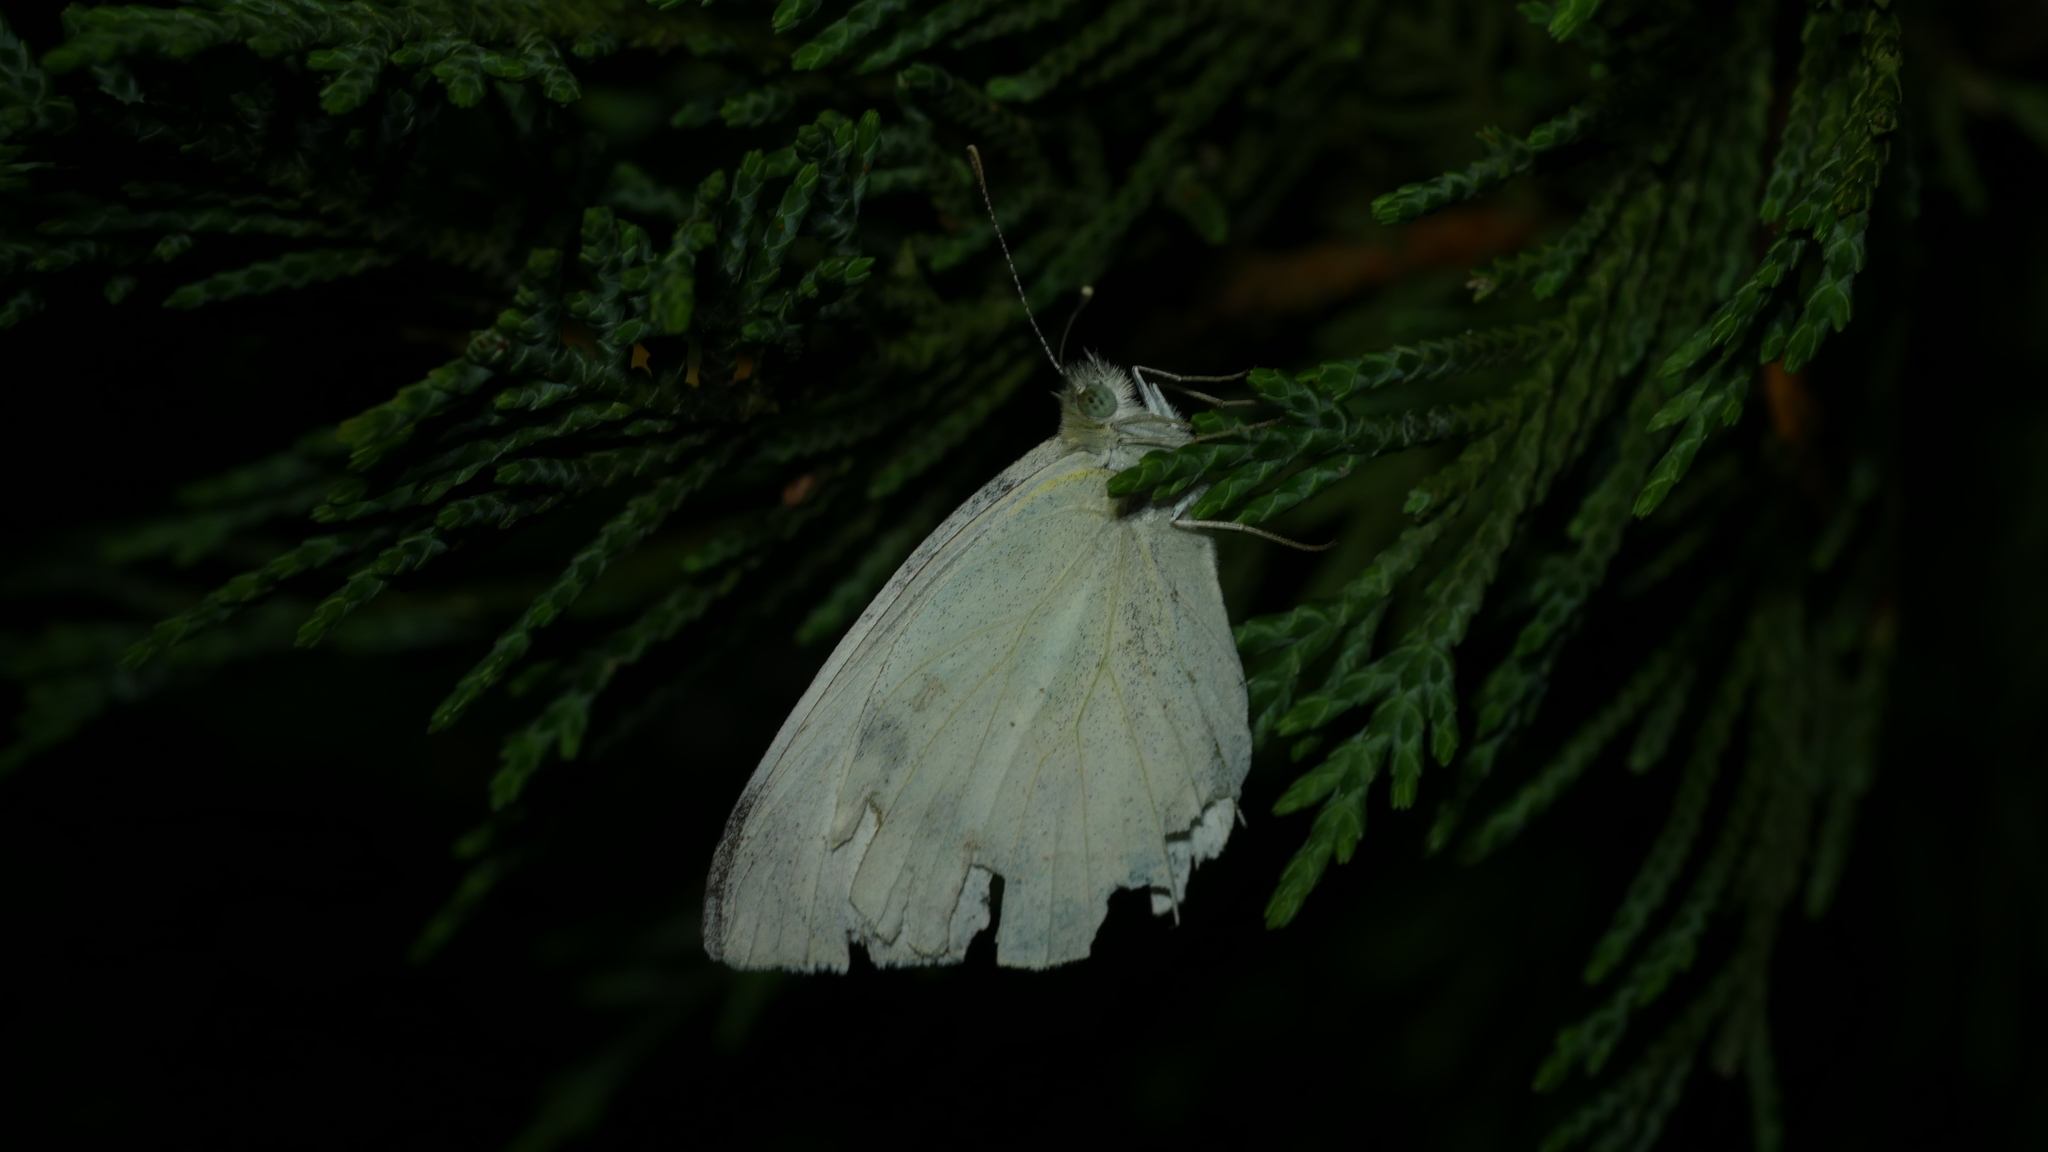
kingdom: Animalia
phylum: Arthropoda
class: Insecta
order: Lepidoptera
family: Pieridae
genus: Pieris
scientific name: Pieris rapae
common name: Small white
